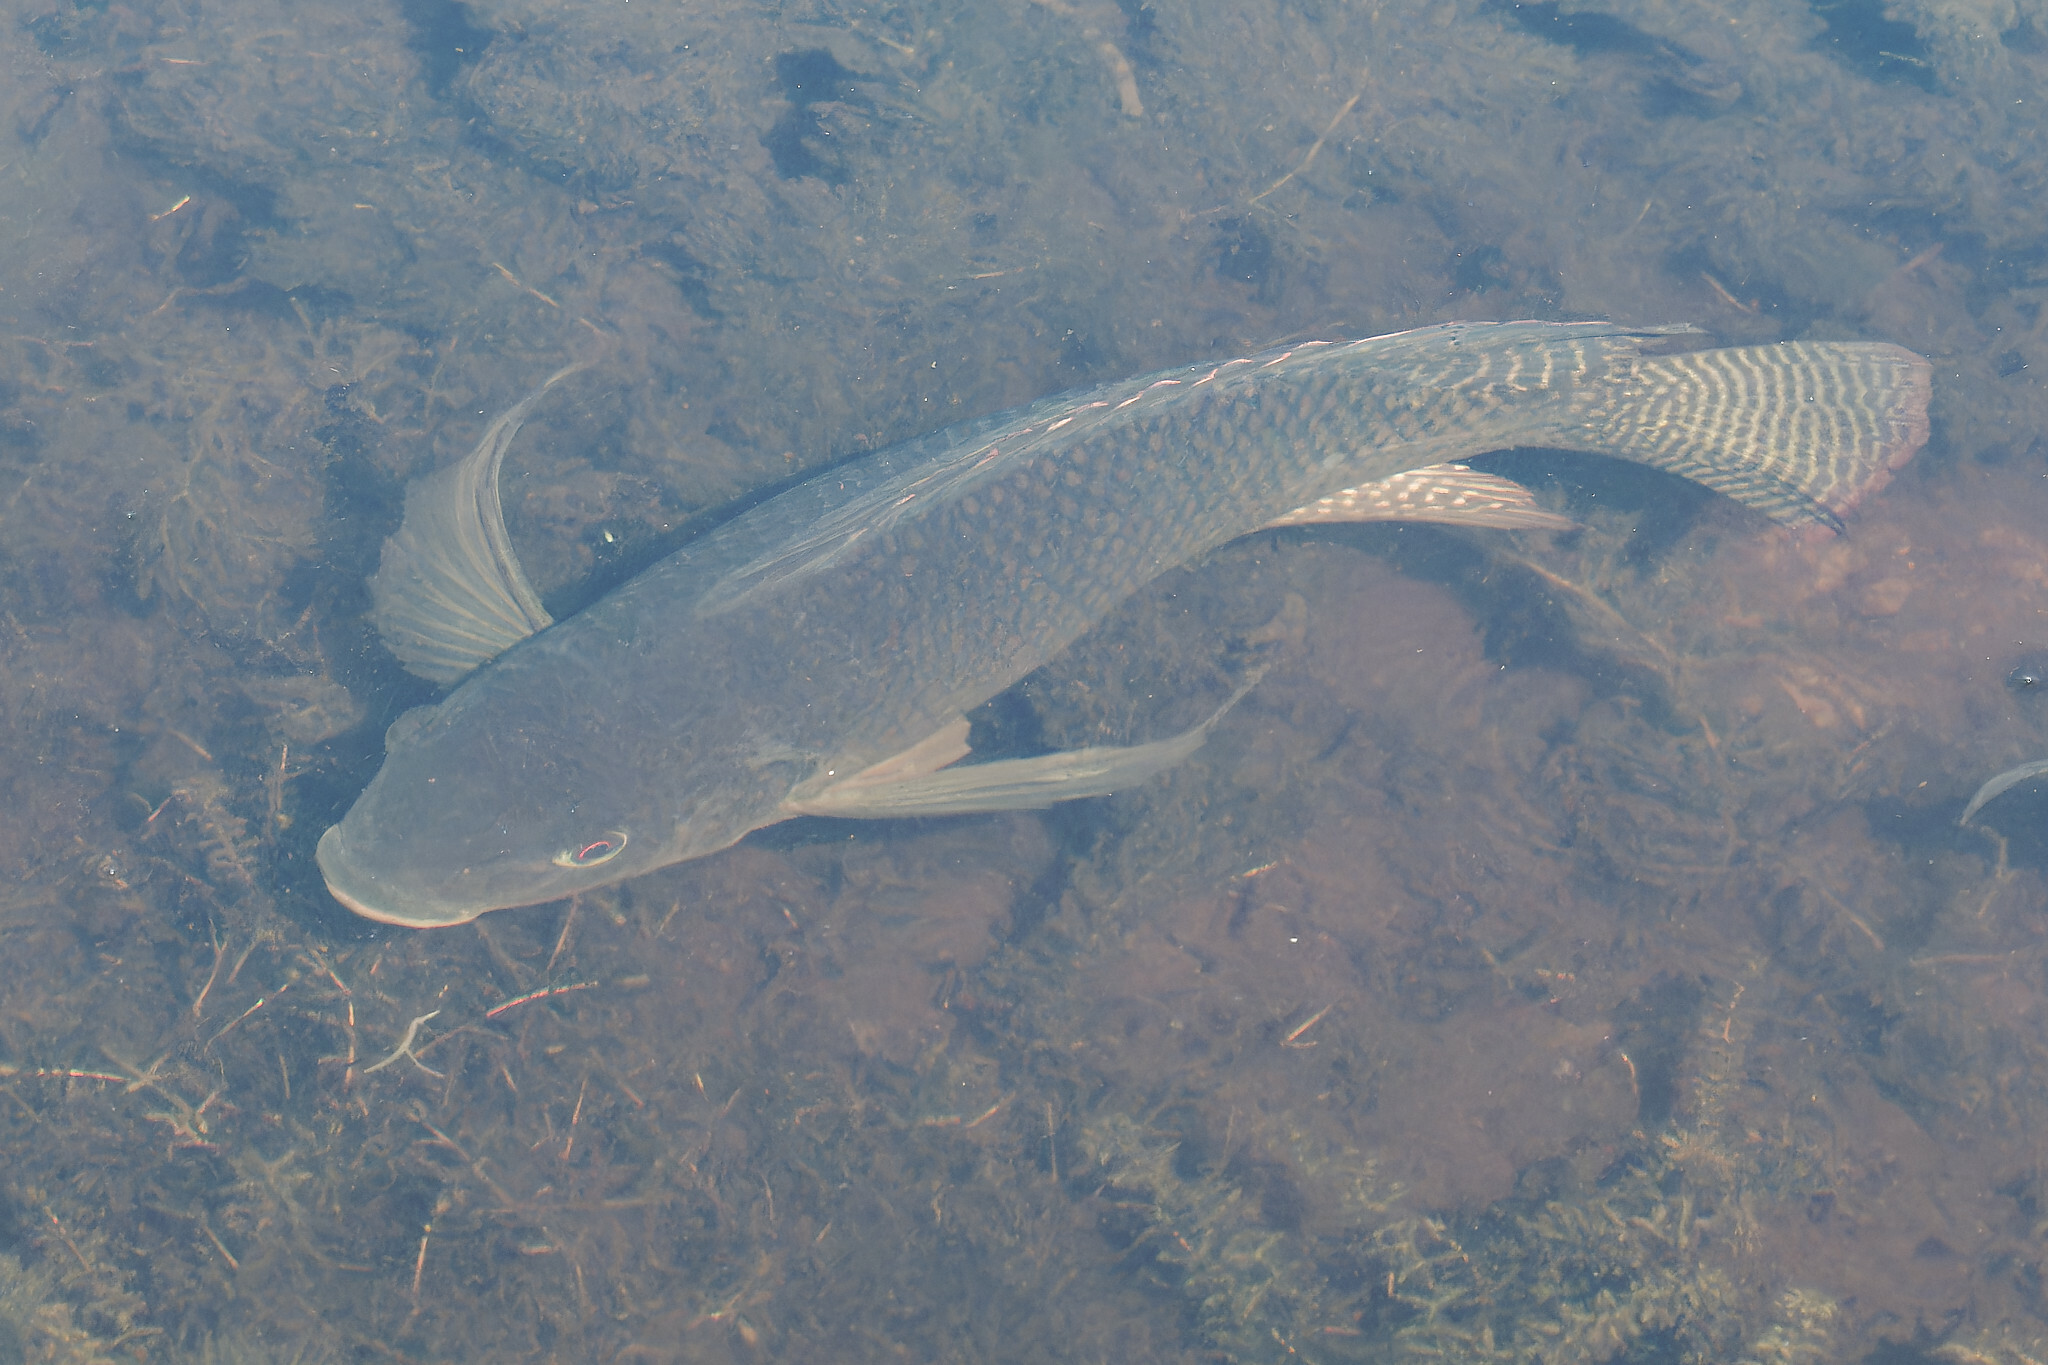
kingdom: Animalia
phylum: Chordata
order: Perciformes
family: Cichlidae
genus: Oreochromis
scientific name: Oreochromis aureus
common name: Blue tilapia
